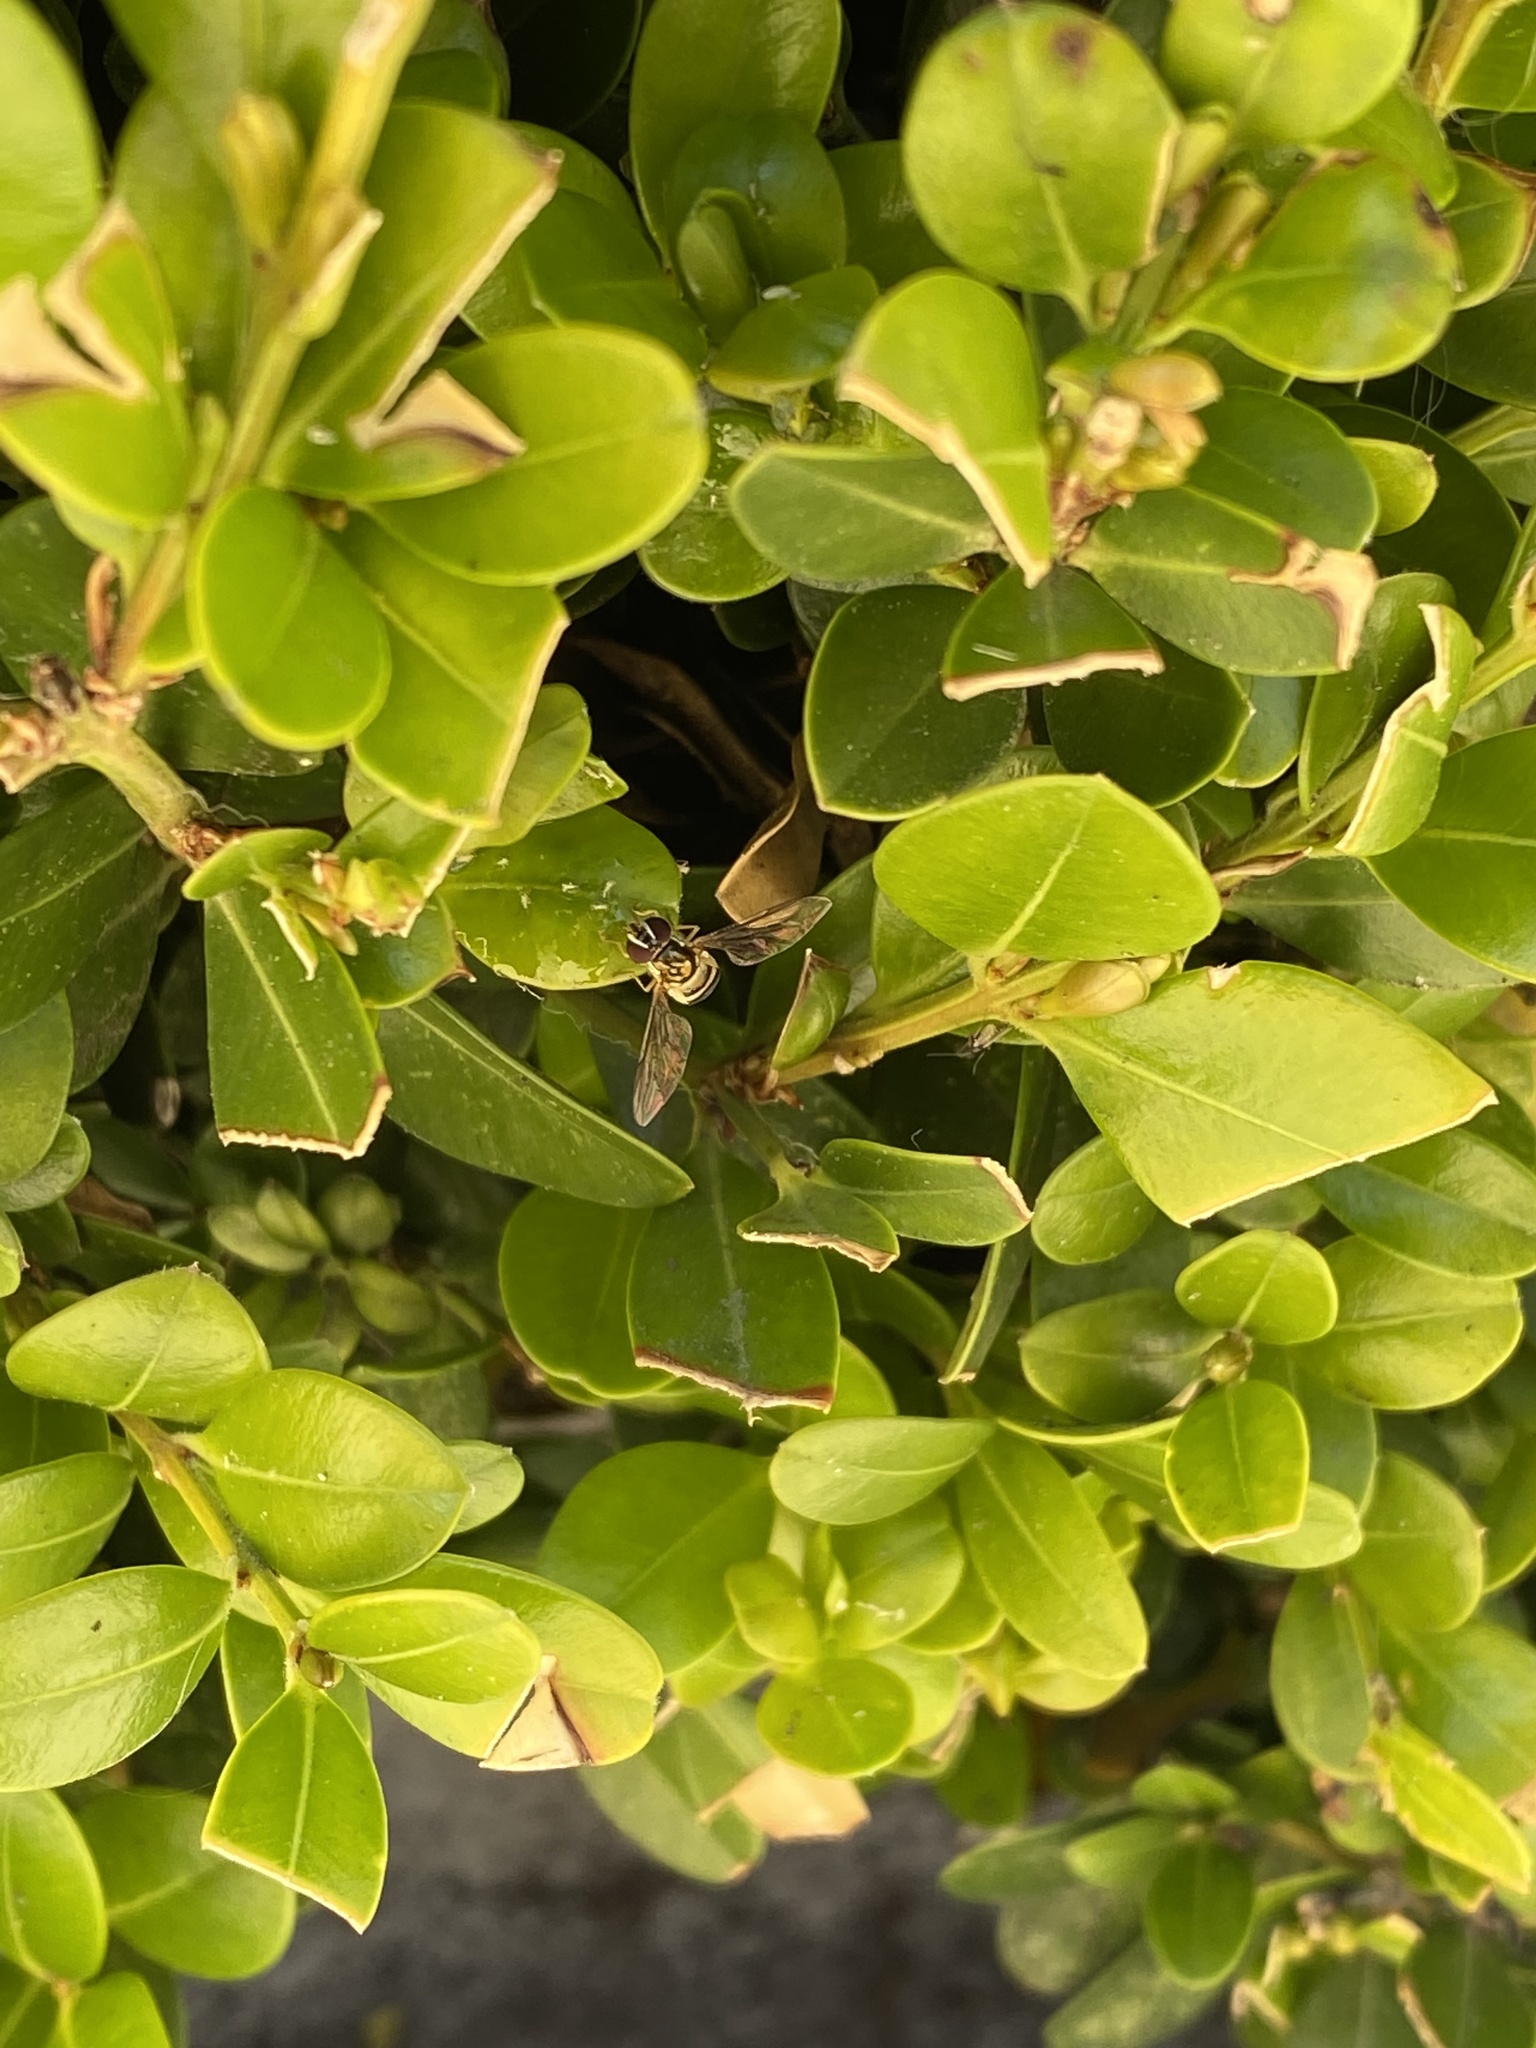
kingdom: Animalia
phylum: Arthropoda
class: Insecta
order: Diptera
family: Syrphidae
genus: Allograpta
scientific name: Allograpta obliqua
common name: Common oblique syrphid
